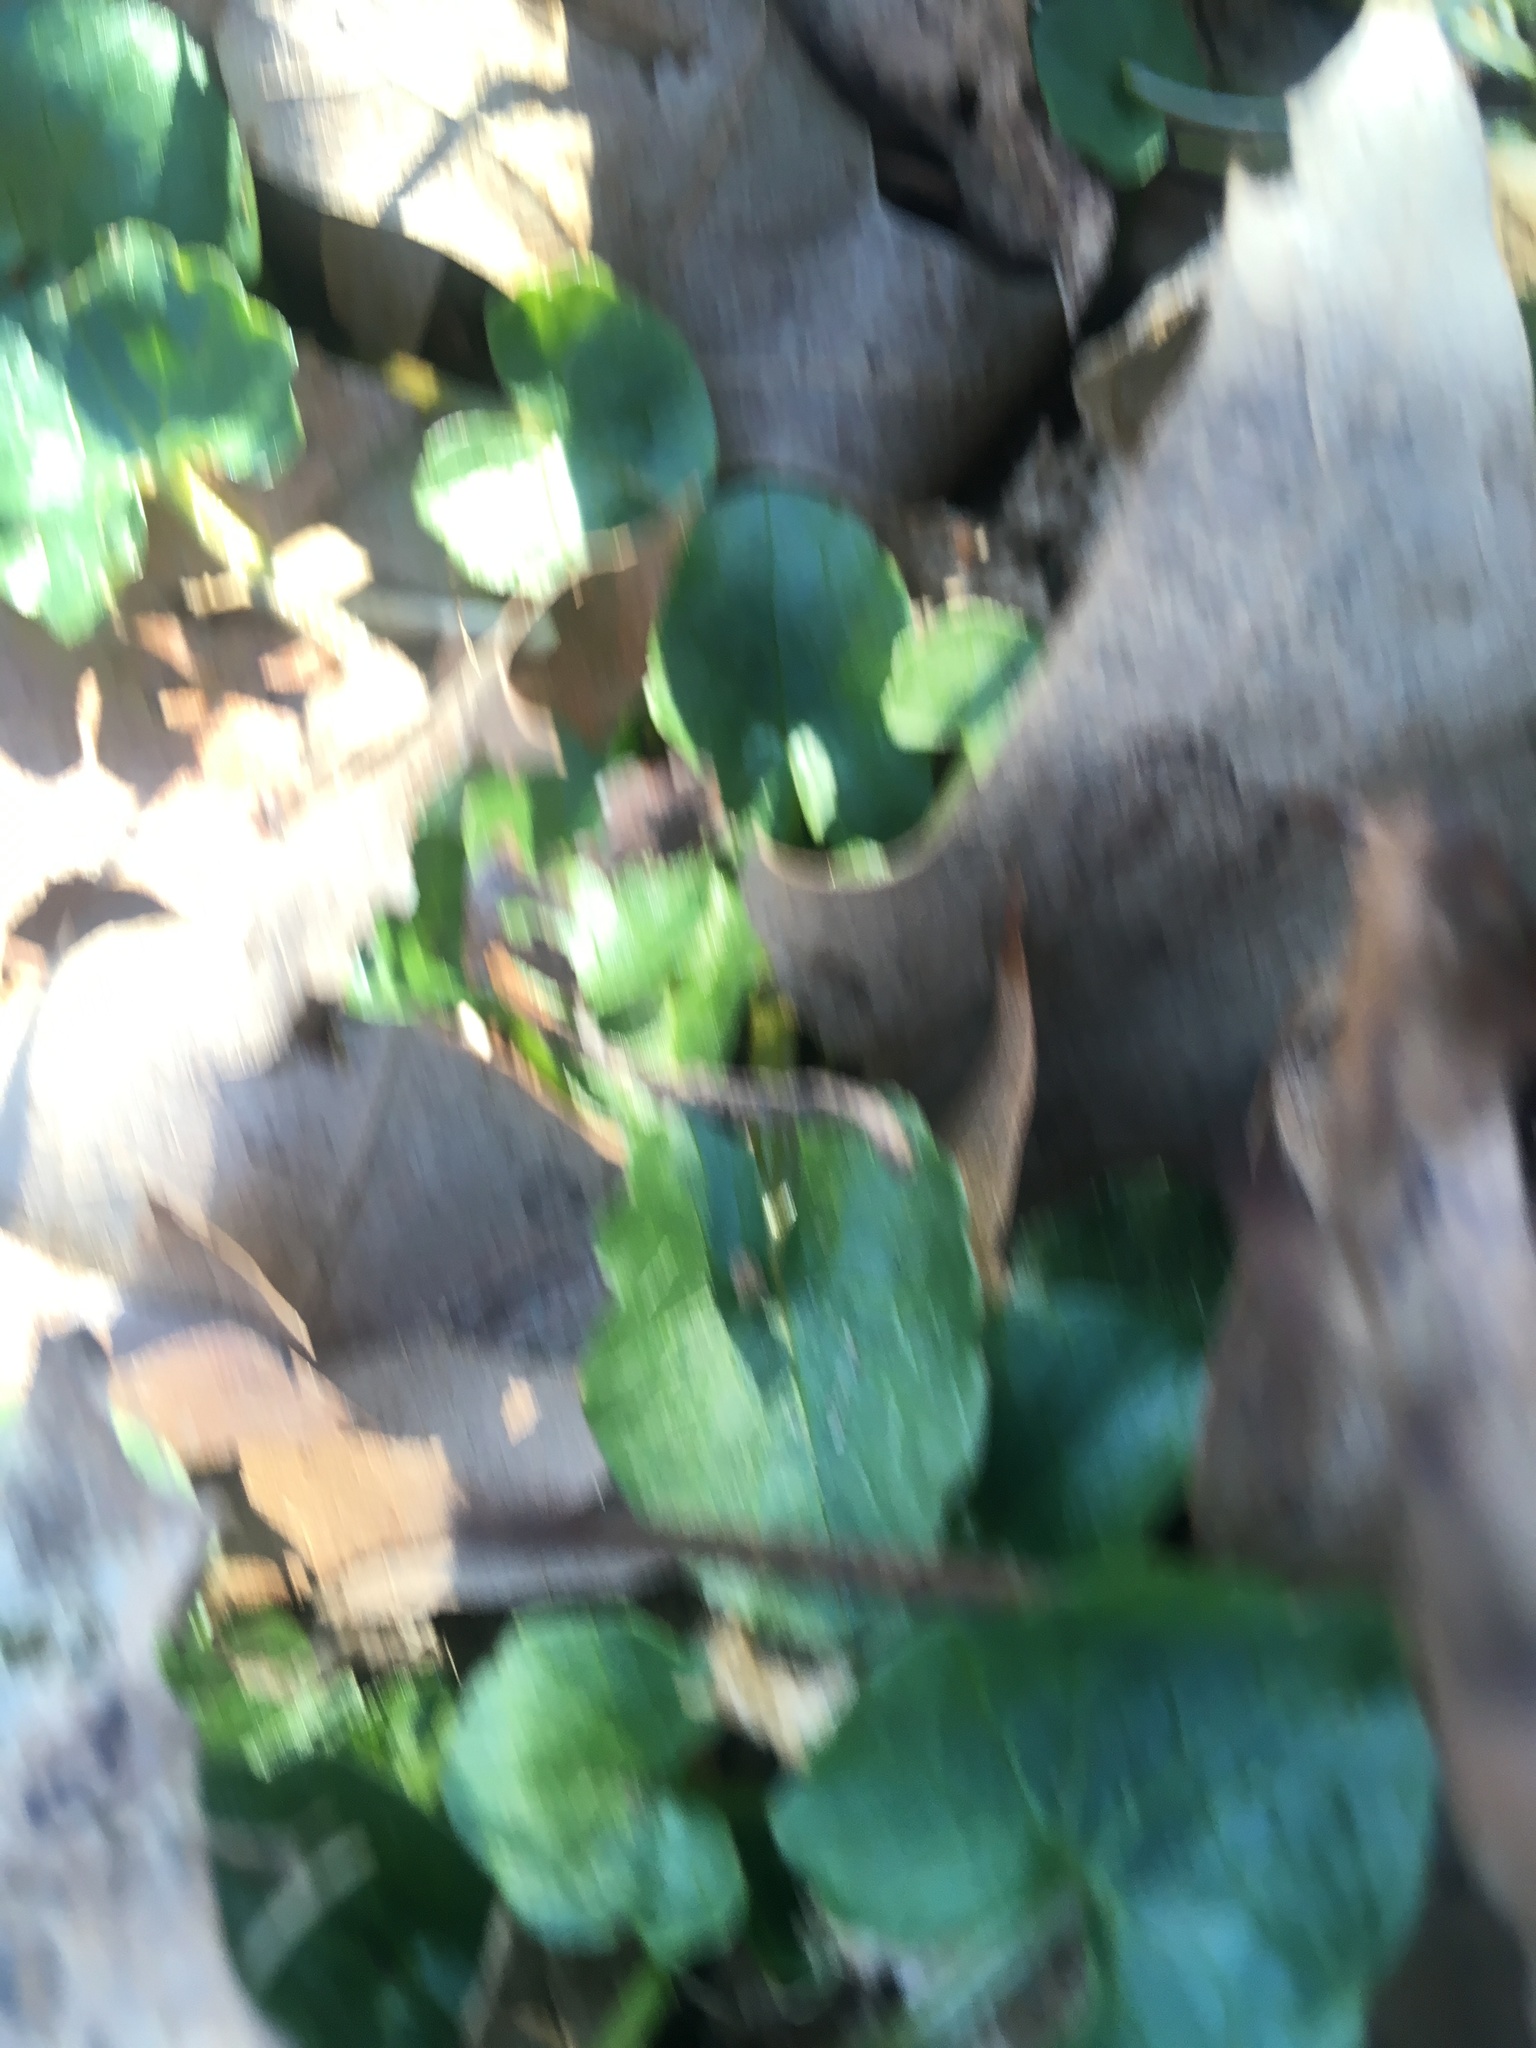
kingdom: Plantae
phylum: Tracheophyta
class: Magnoliopsida
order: Ranunculales
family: Ranunculaceae
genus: Ficaria
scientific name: Ficaria verna
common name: Lesser celandine
